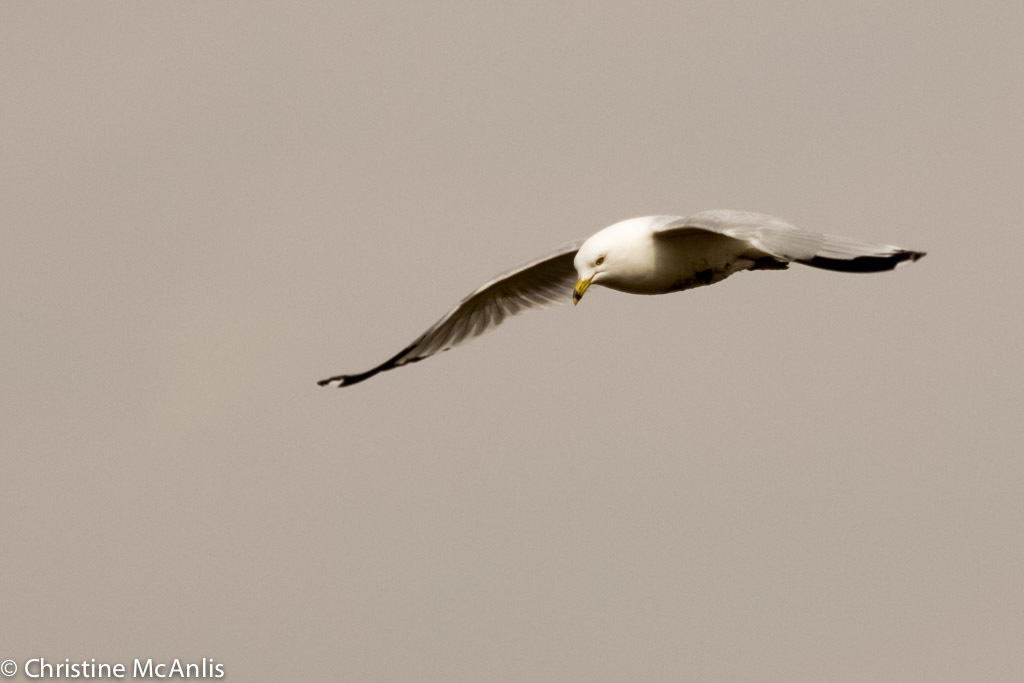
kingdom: Animalia
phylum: Chordata
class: Aves
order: Charadriiformes
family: Laridae
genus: Larus
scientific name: Larus delawarensis
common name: Ring-billed gull
